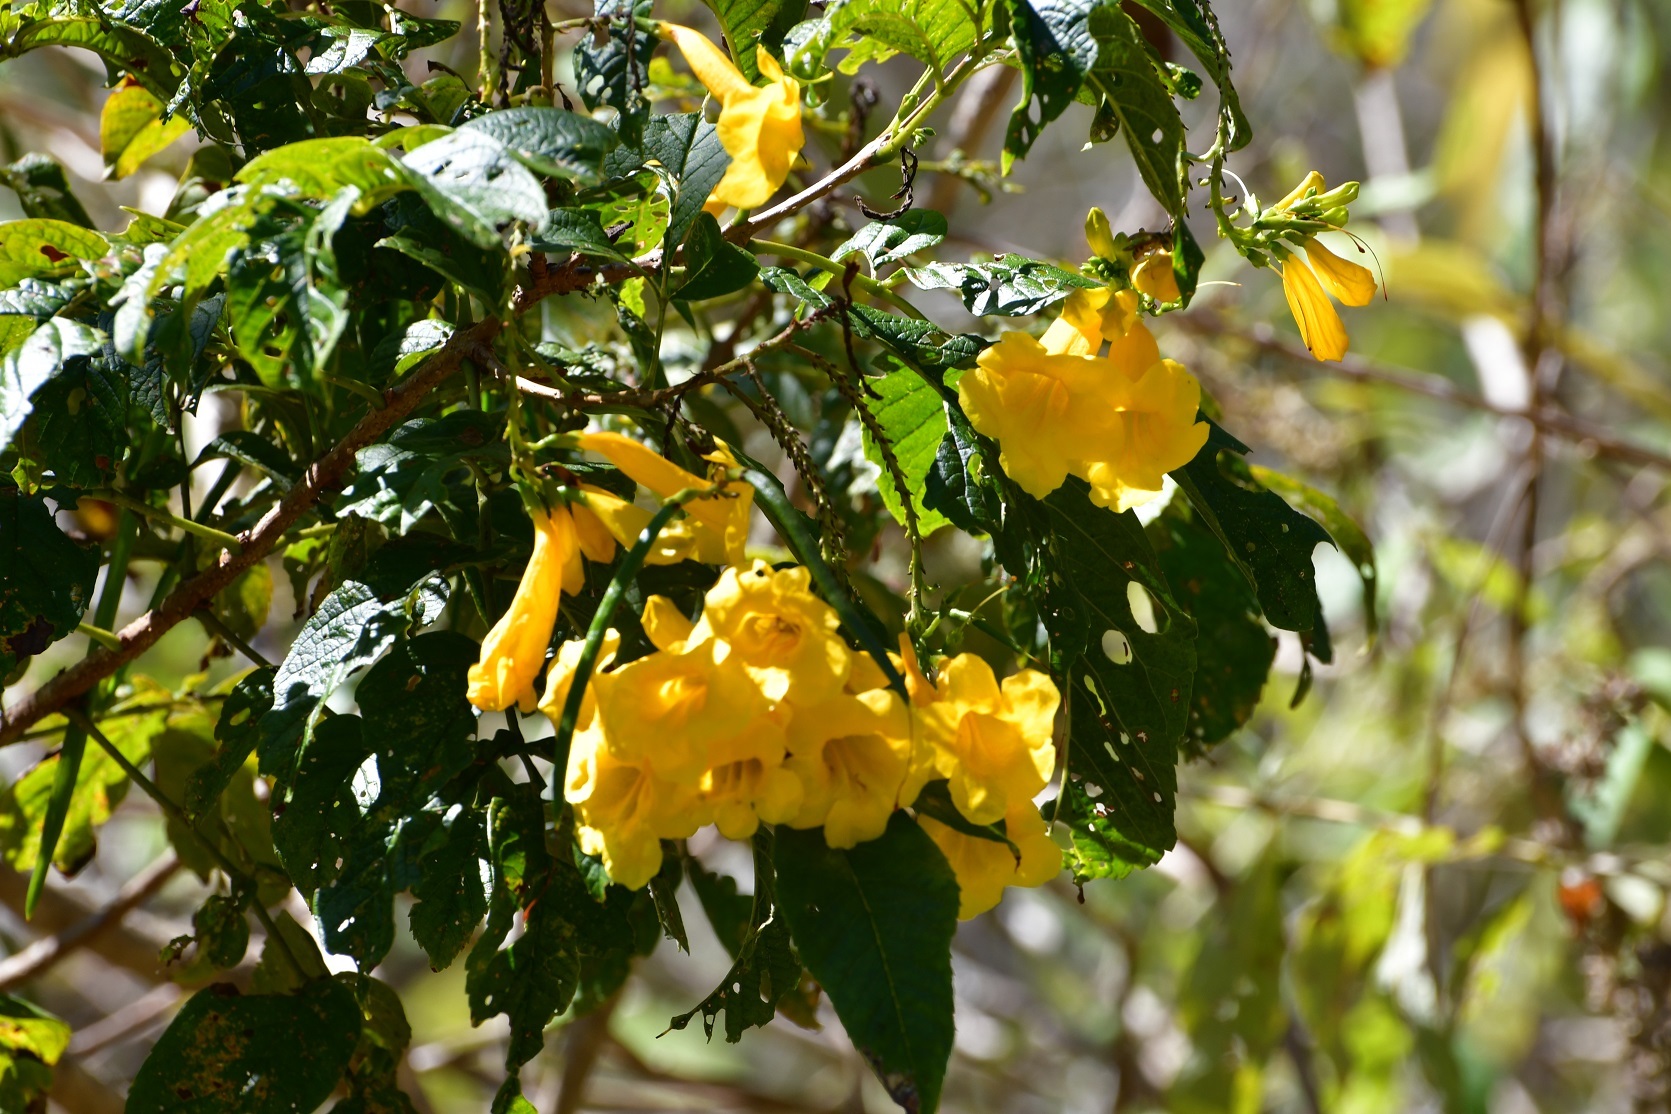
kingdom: Plantae
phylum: Tracheophyta
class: Magnoliopsida
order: Lamiales
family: Bignoniaceae
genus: Tecoma
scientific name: Tecoma stans
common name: Yellow trumpetbush
